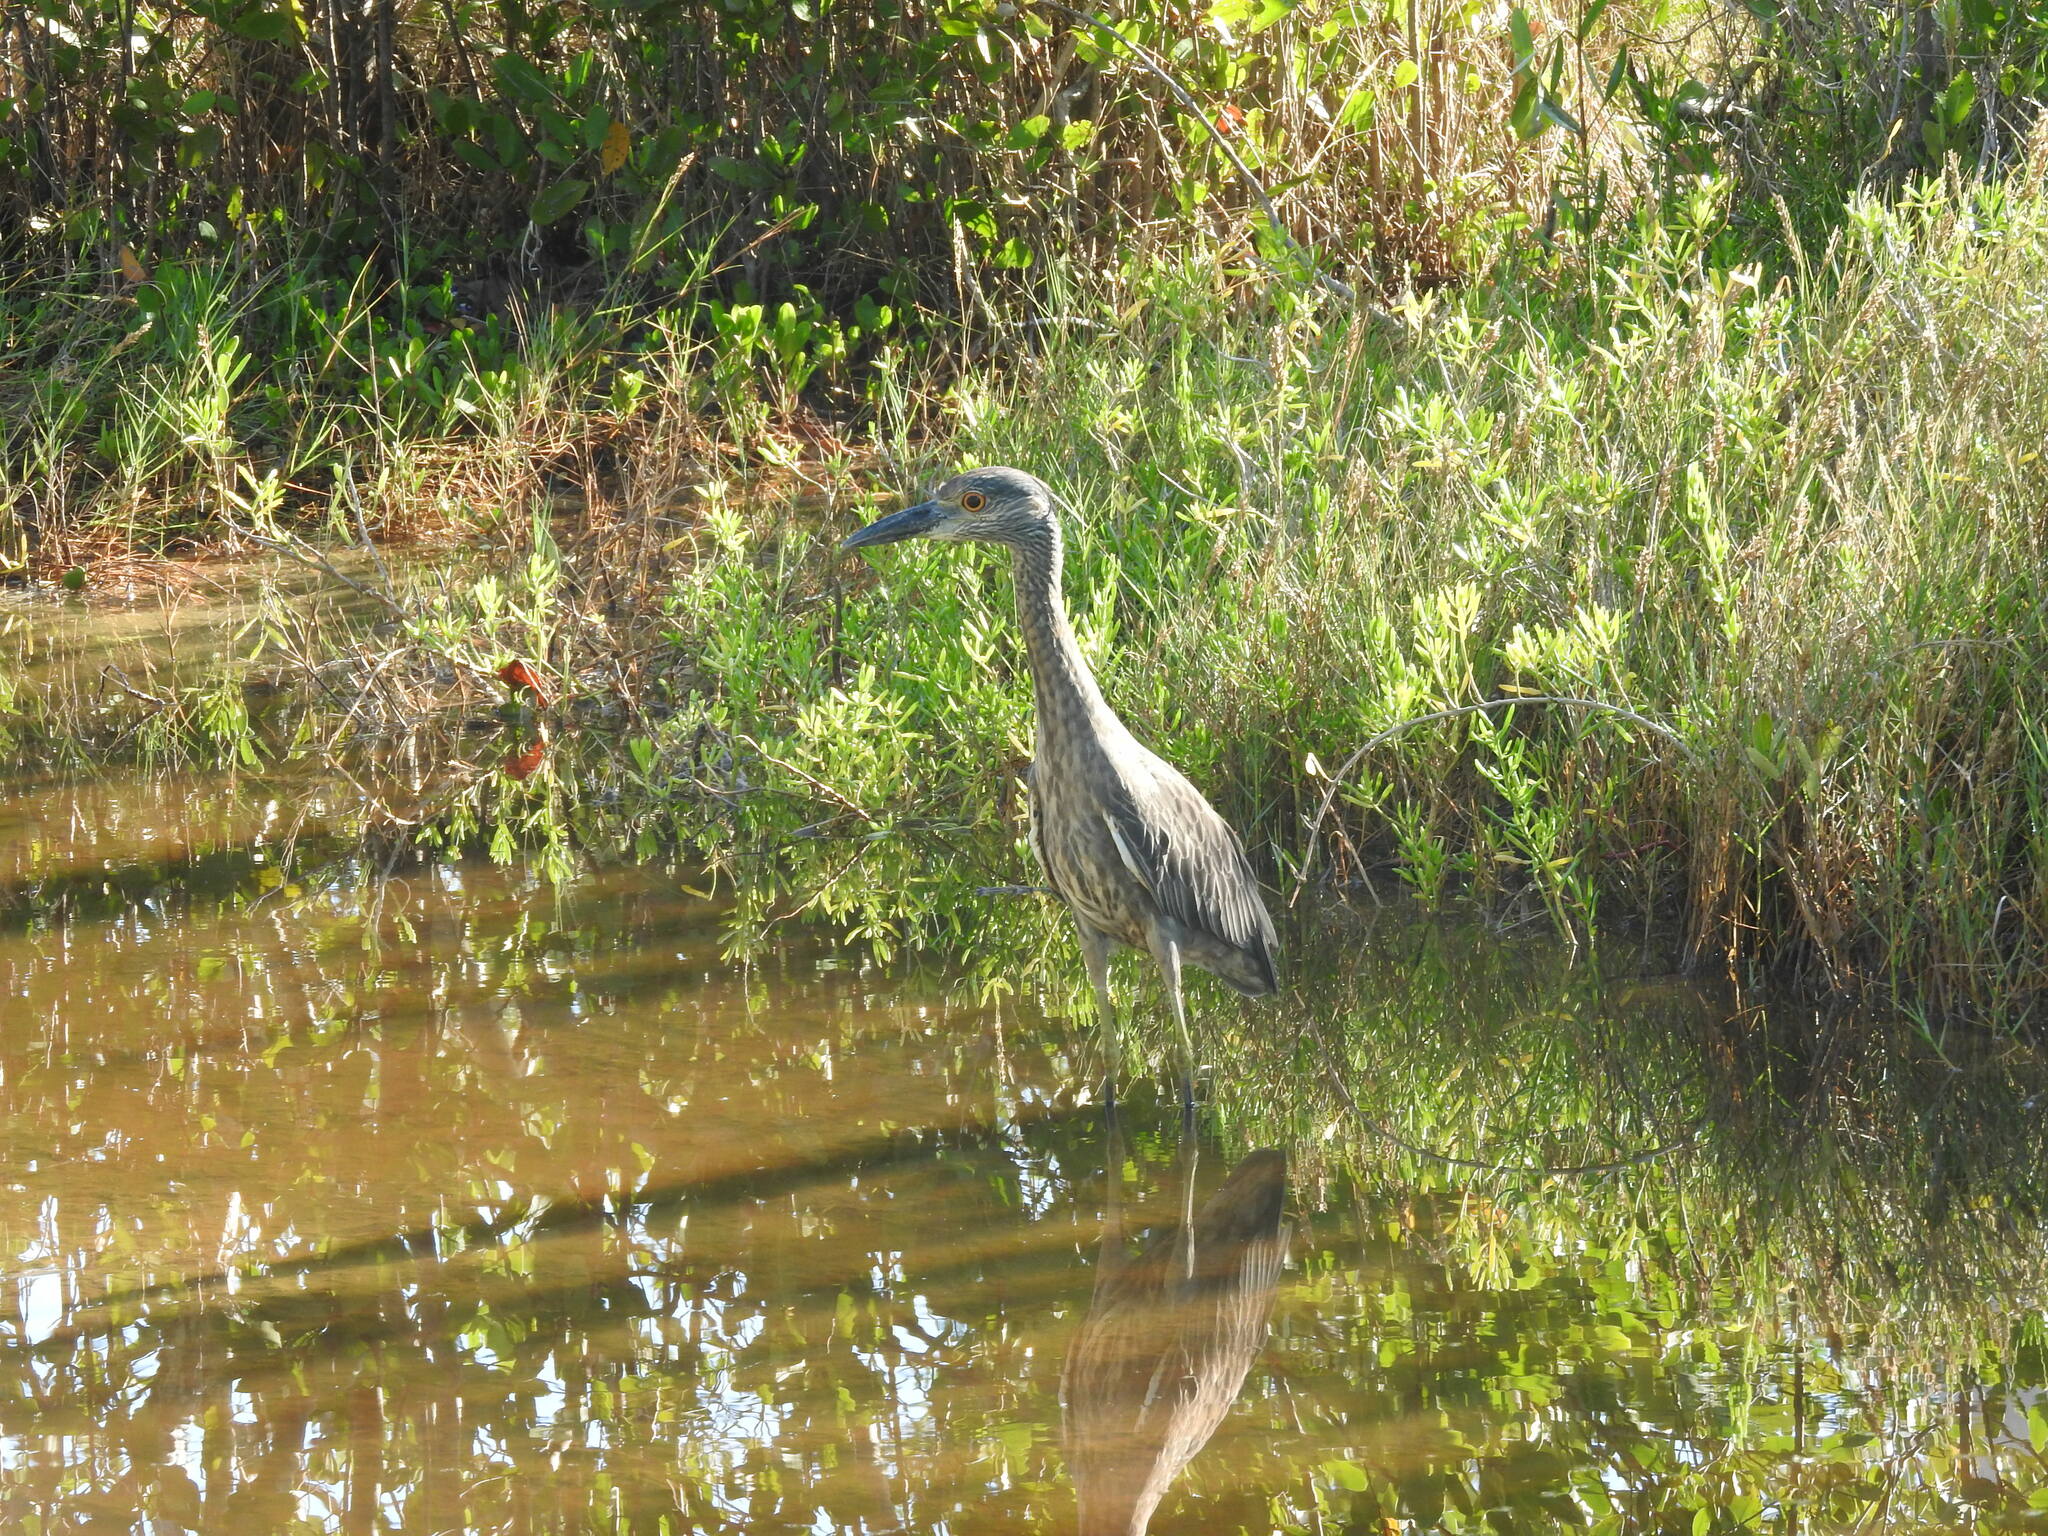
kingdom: Animalia
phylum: Chordata
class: Aves
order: Pelecaniformes
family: Ardeidae
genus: Nyctanassa
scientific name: Nyctanassa violacea
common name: Yellow-crowned night heron
